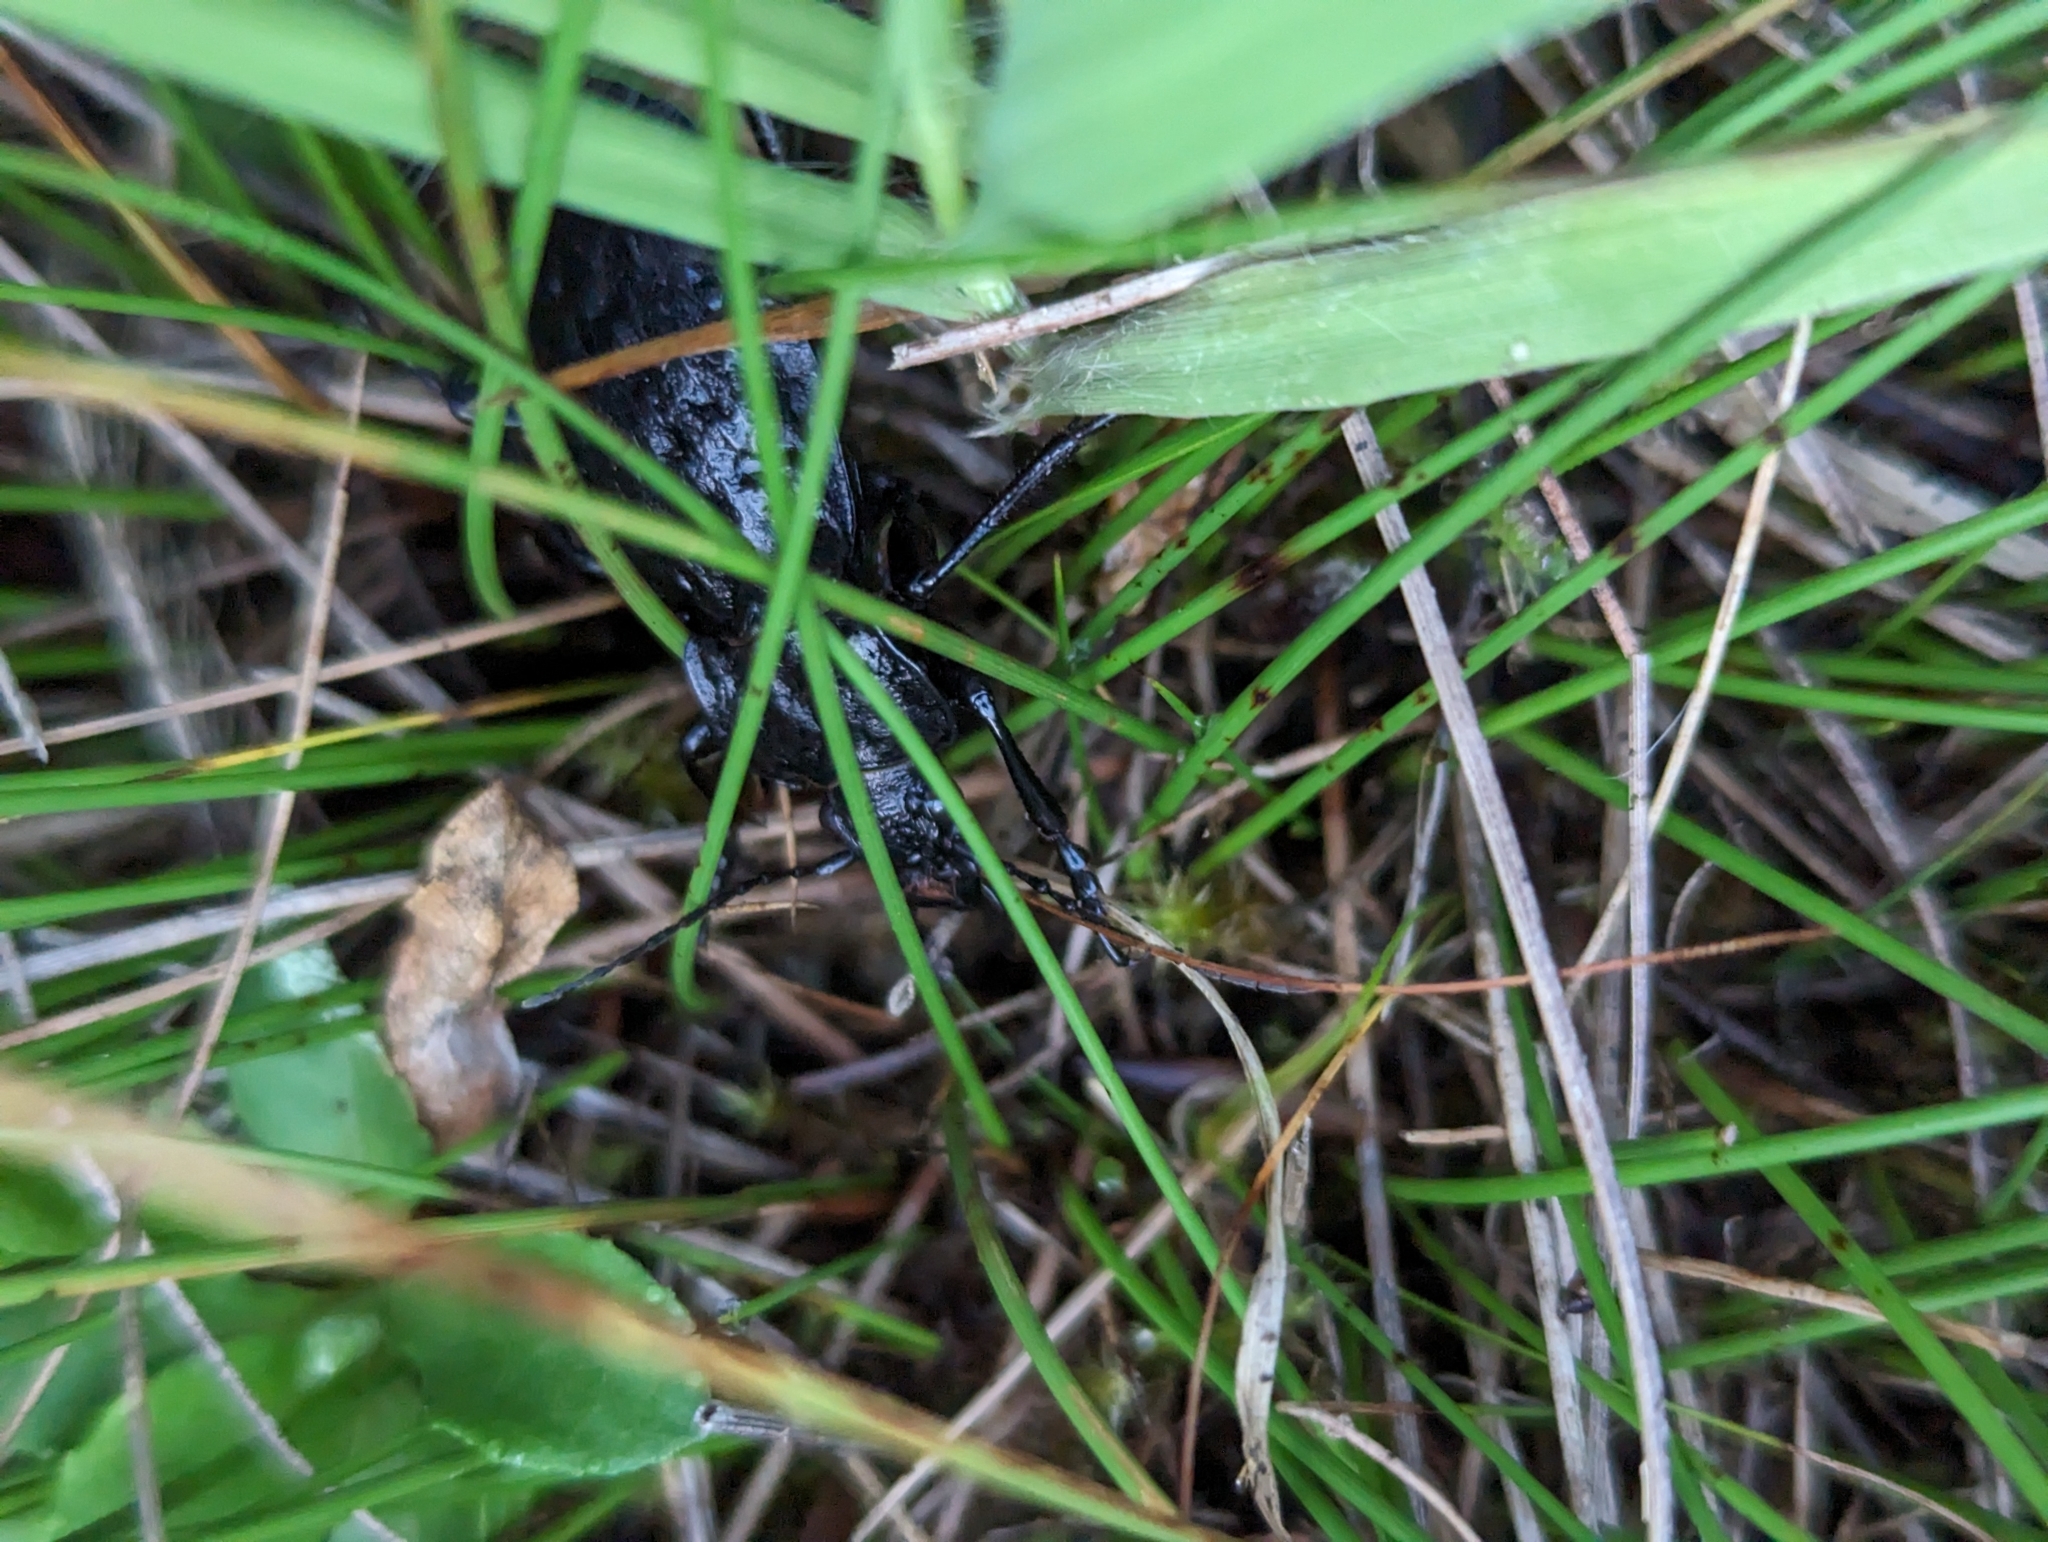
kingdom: Animalia
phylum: Arthropoda
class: Insecta
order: Coleoptera
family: Carabidae
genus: Carabus
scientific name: Carabus nodulosus
